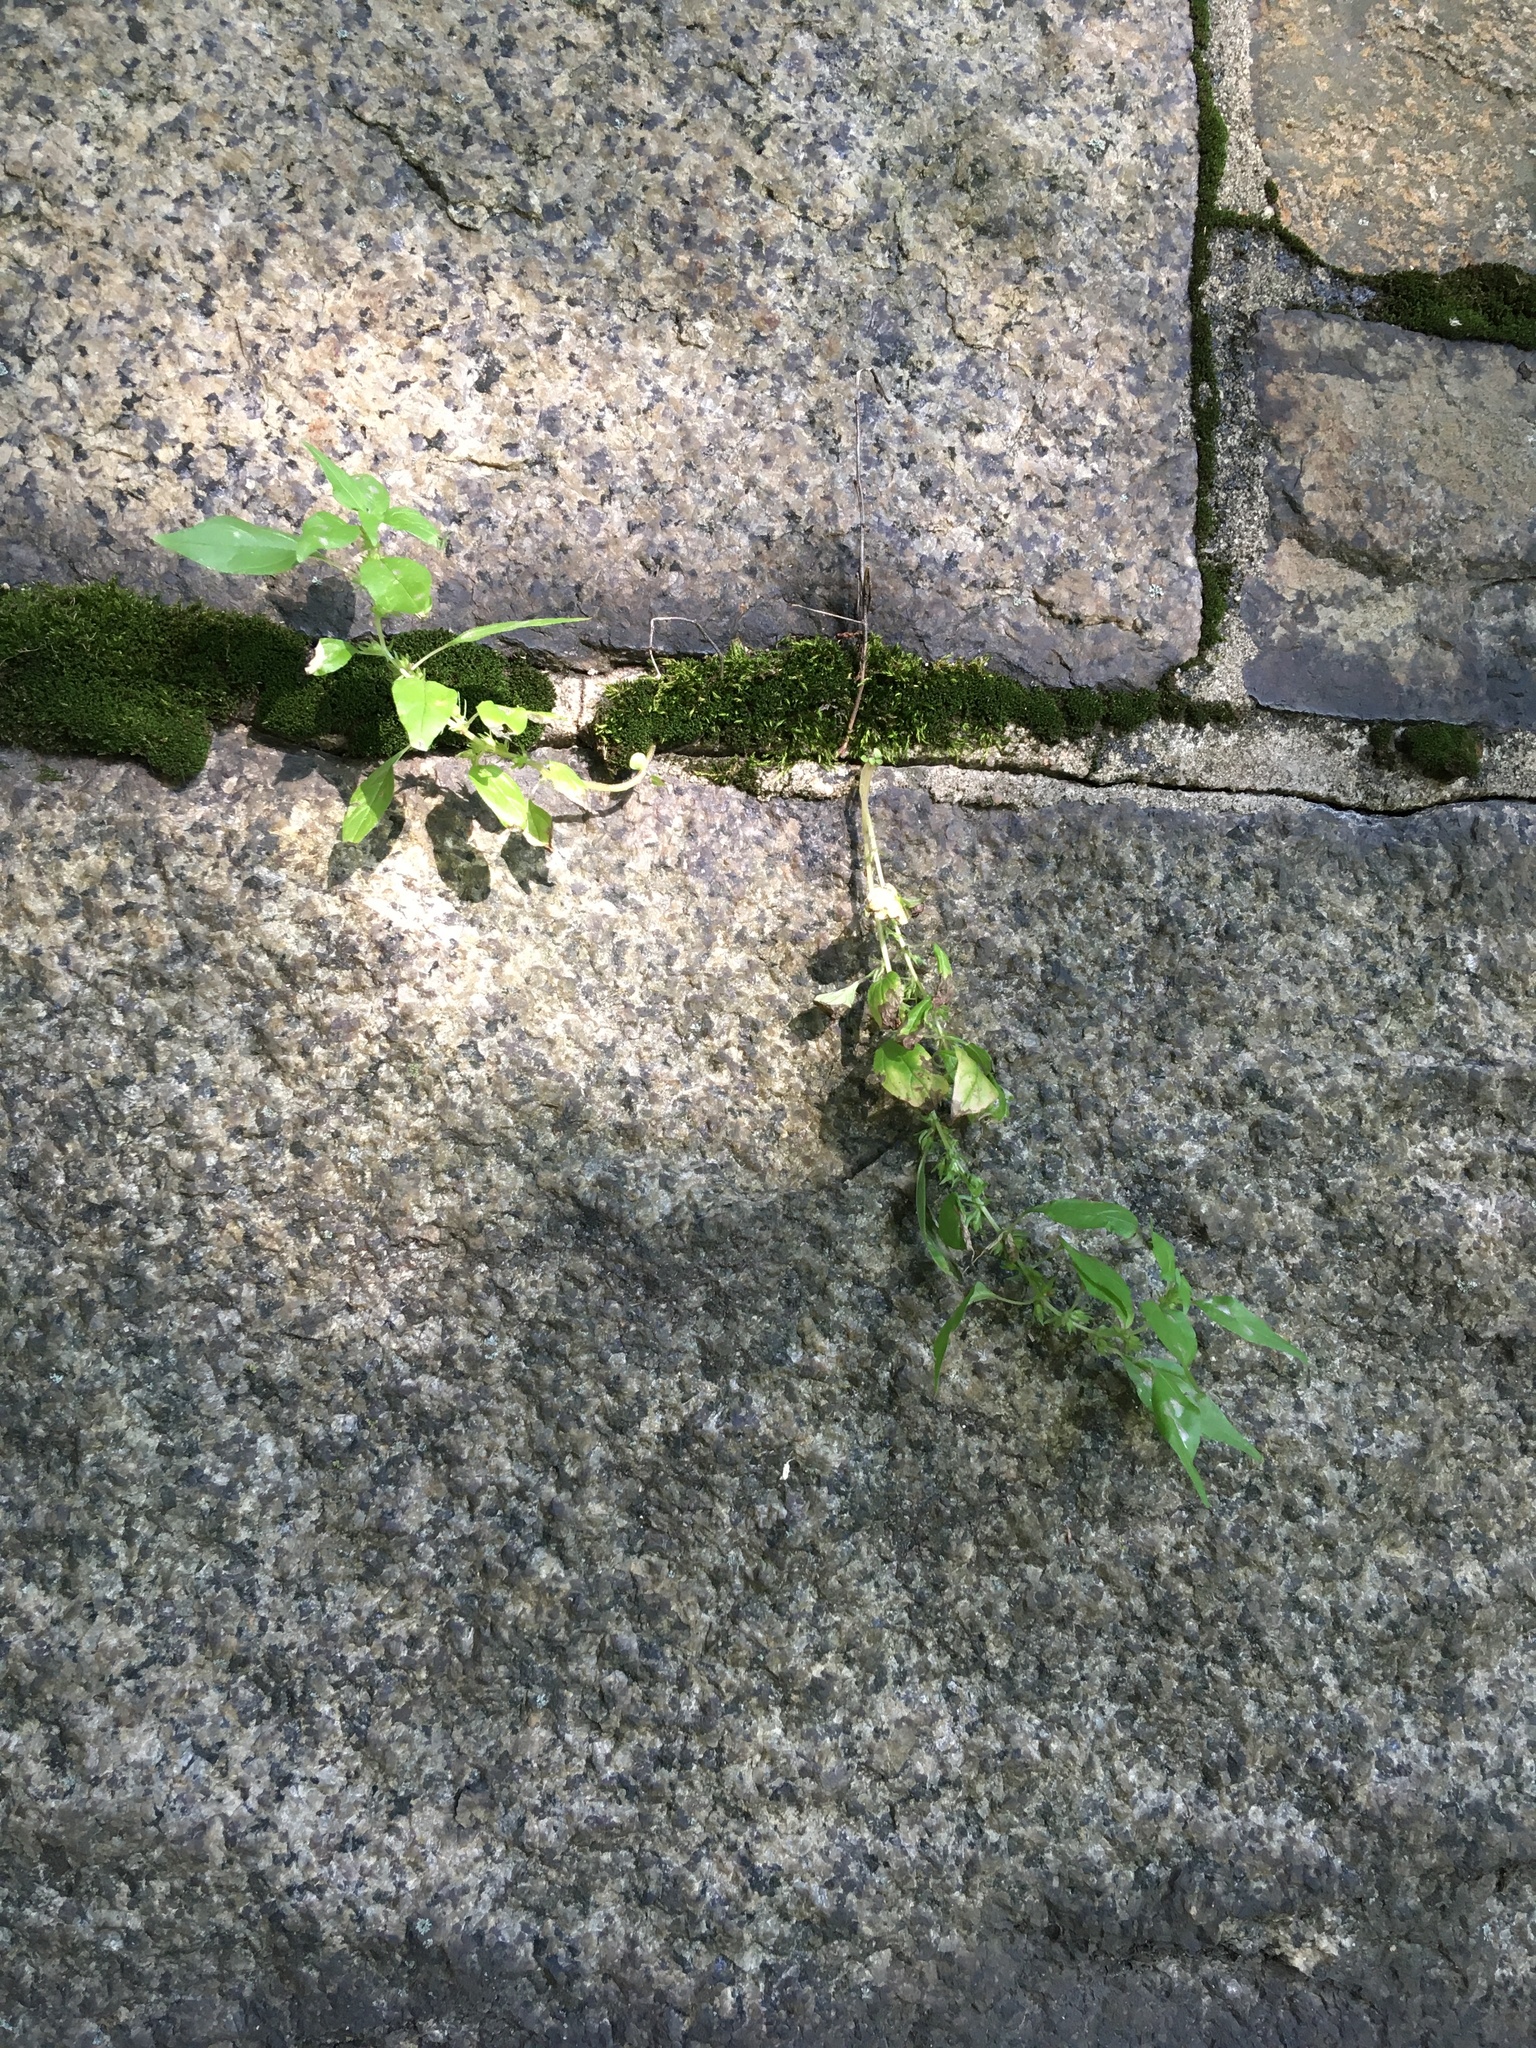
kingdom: Plantae
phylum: Tracheophyta
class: Magnoliopsida
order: Rosales
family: Urticaceae
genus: Parietaria
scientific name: Parietaria pensylvanica
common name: Pennsylvania pellitory
